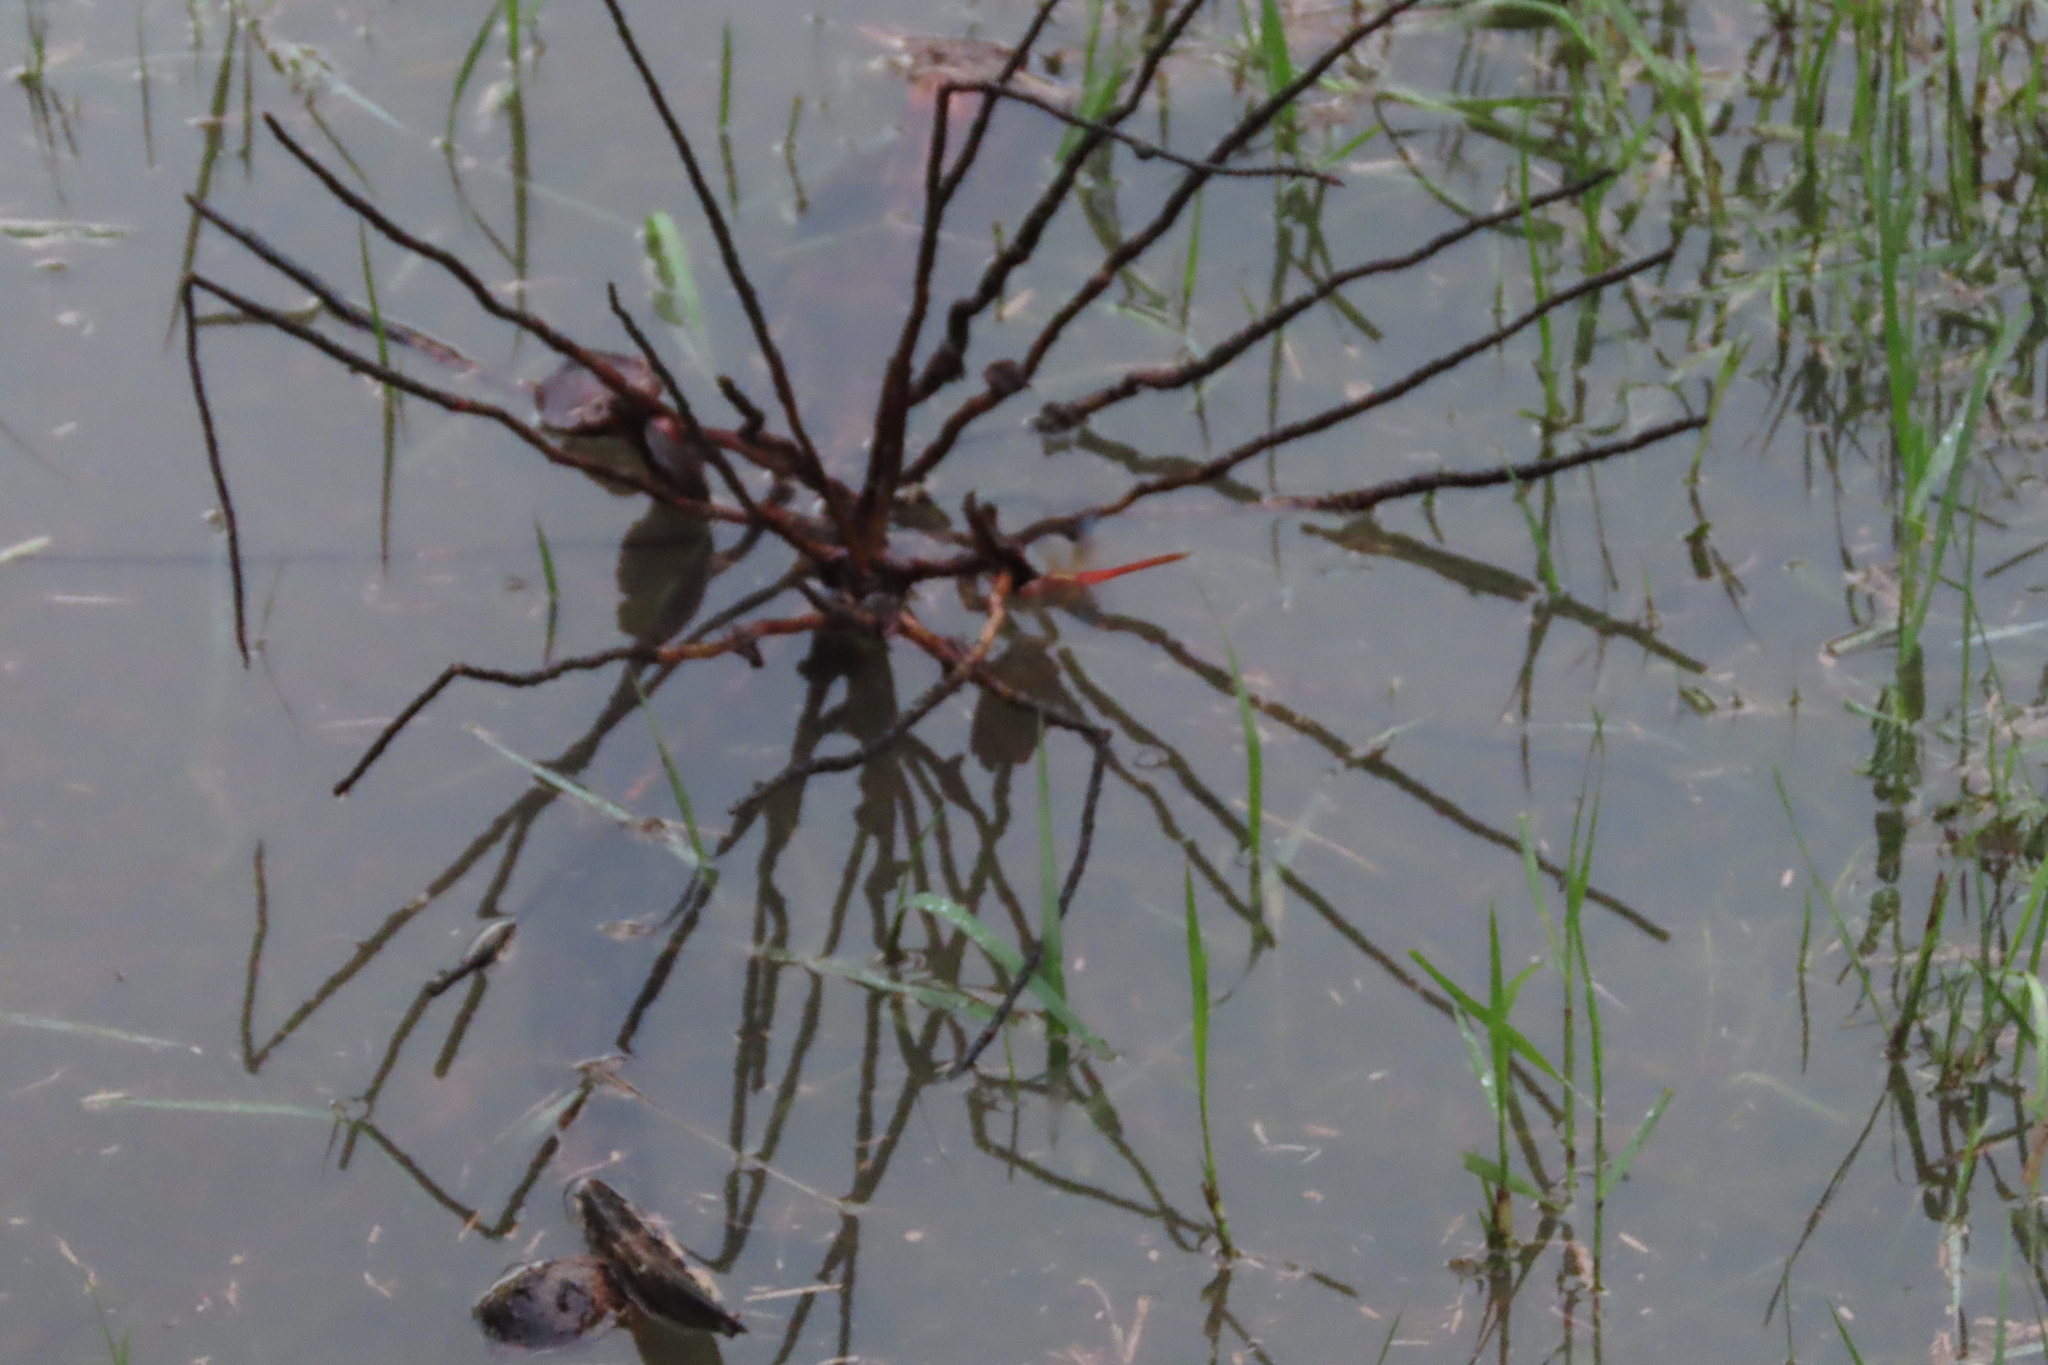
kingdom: Animalia
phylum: Arthropoda
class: Insecta
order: Odonata
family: Libellulidae
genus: Tholymis
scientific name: Tholymis tillarga
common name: Coral-tailed cloud wing
